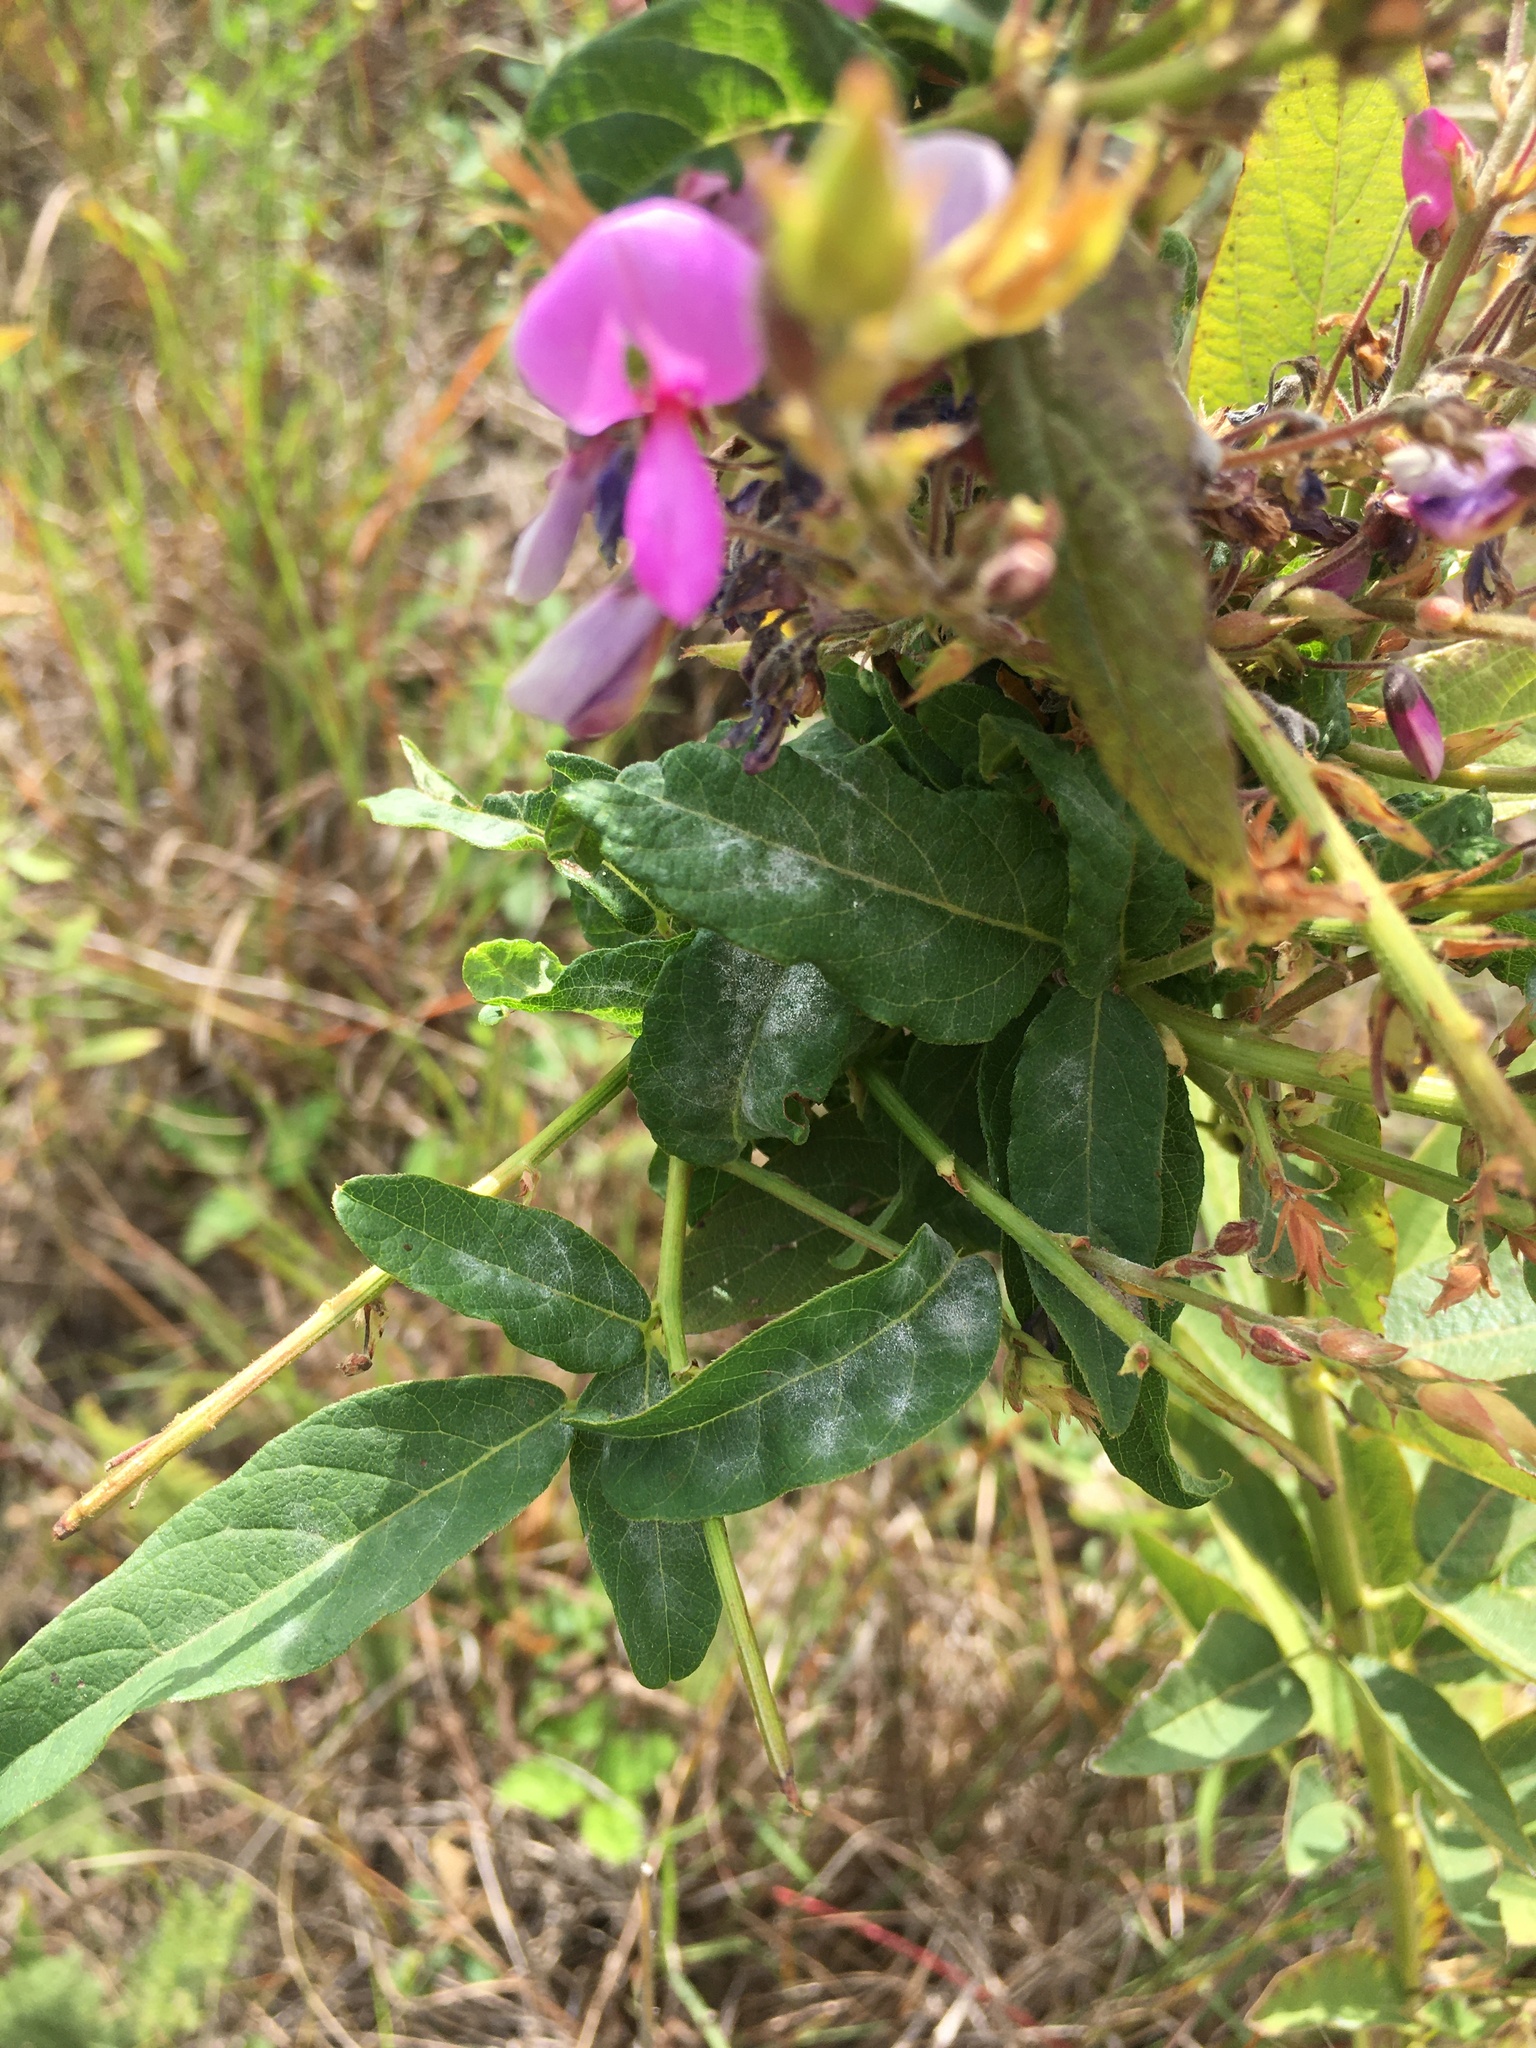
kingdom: Plantae
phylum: Tracheophyta
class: Magnoliopsida
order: Fabales
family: Fabaceae
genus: Desmodium
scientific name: Desmodium canadense
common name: Canada tick-trefoil
